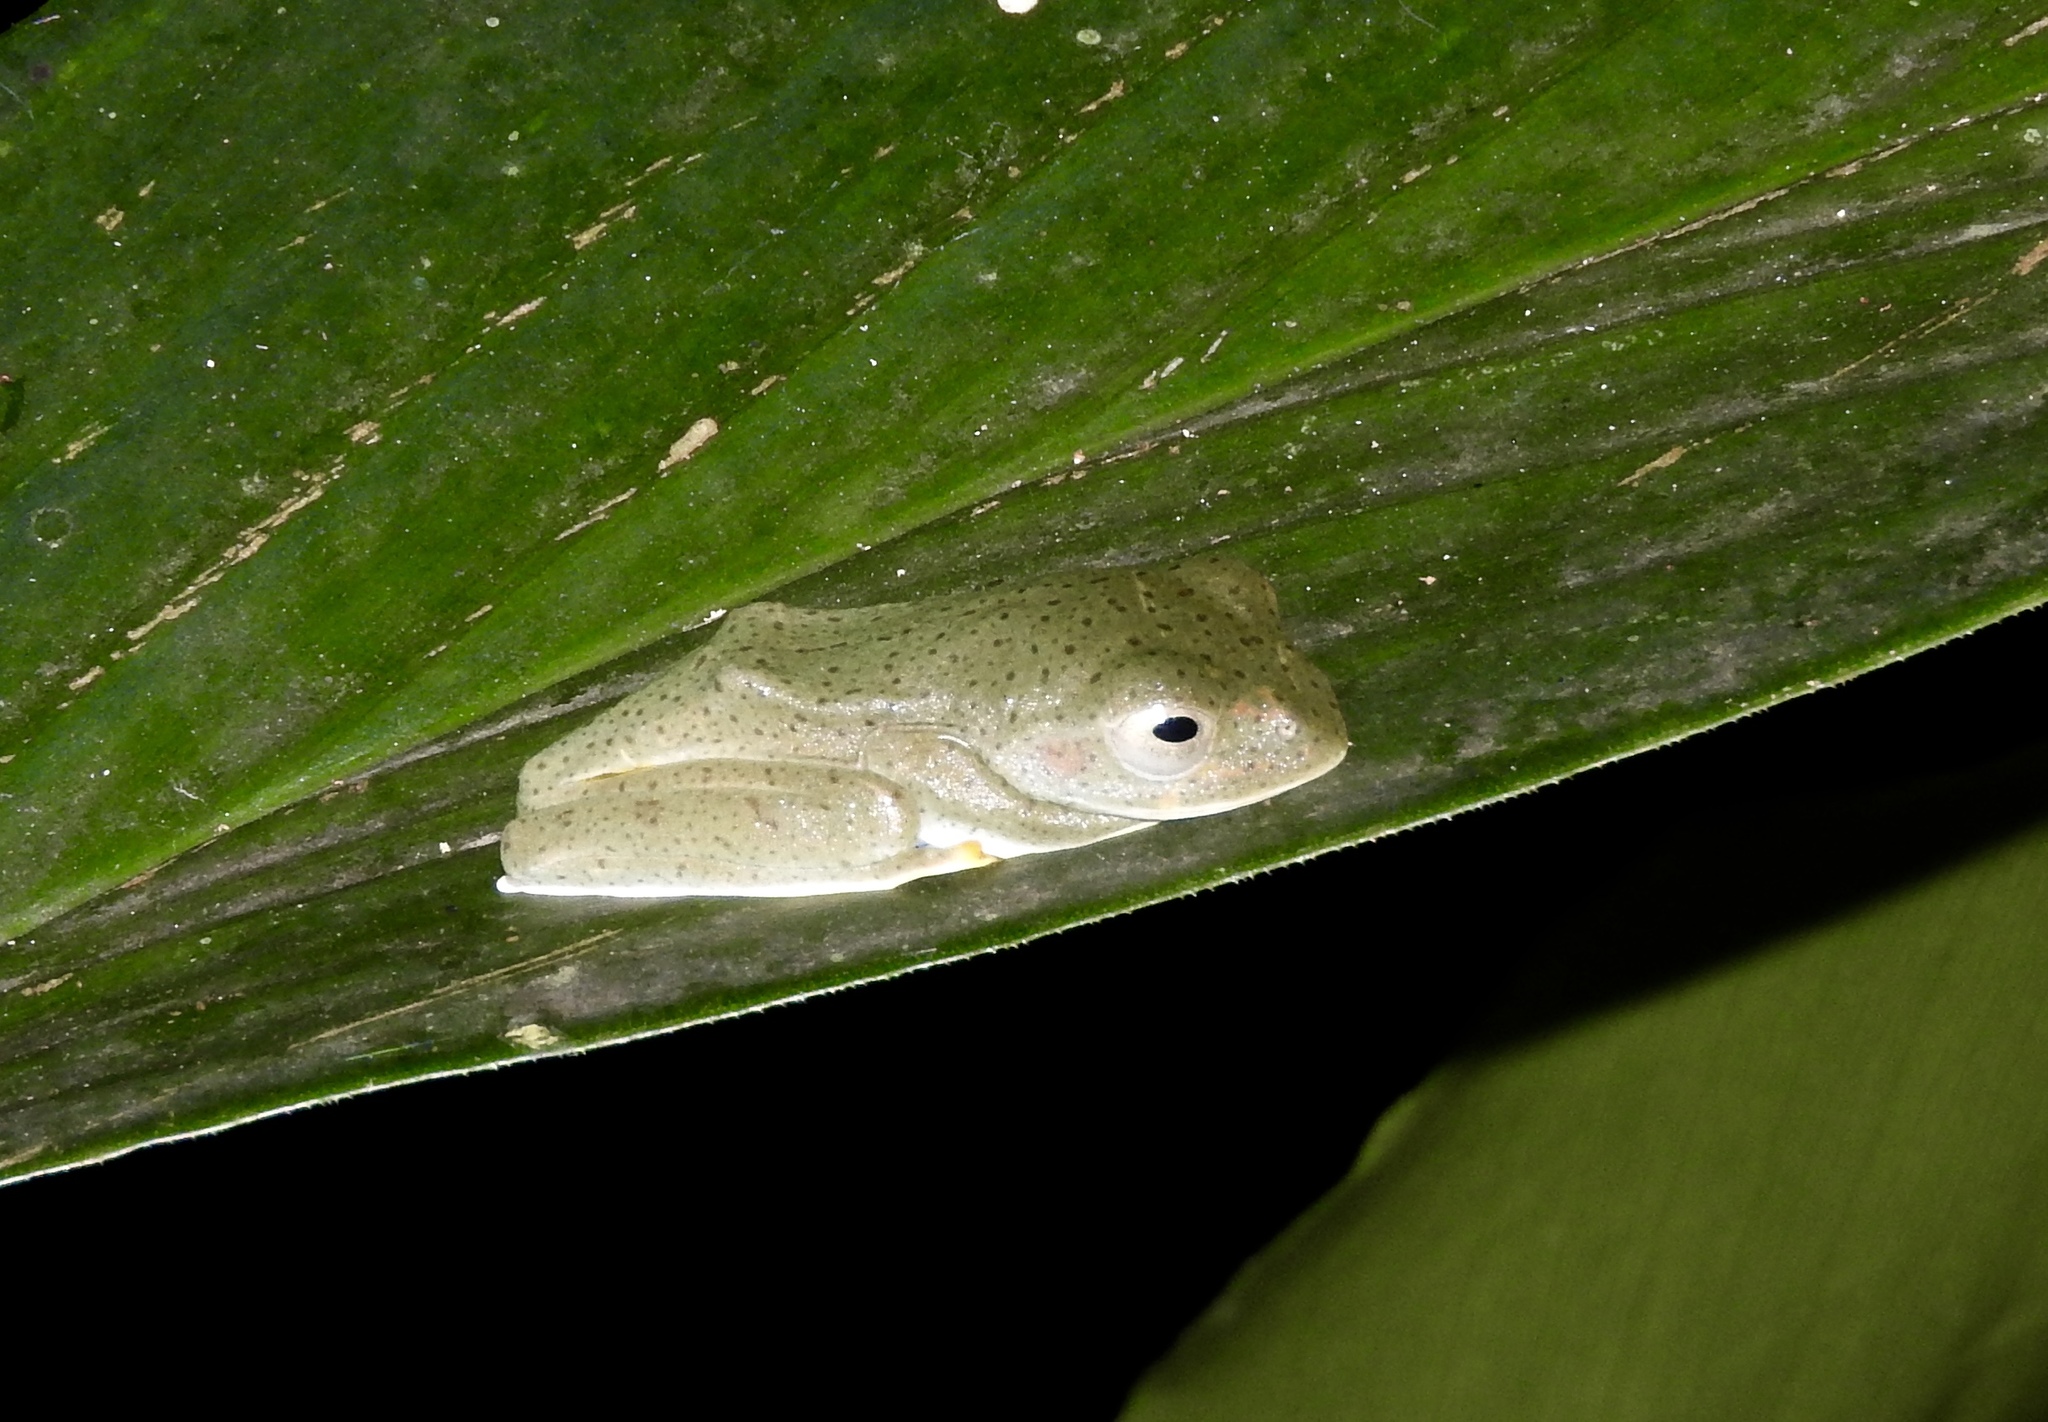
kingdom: Animalia
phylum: Chordata
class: Amphibia
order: Anura
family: Rhacophoridae
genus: Rhacophorus
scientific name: Rhacophorus reinwardtii
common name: Reinwardt’s flying frog
